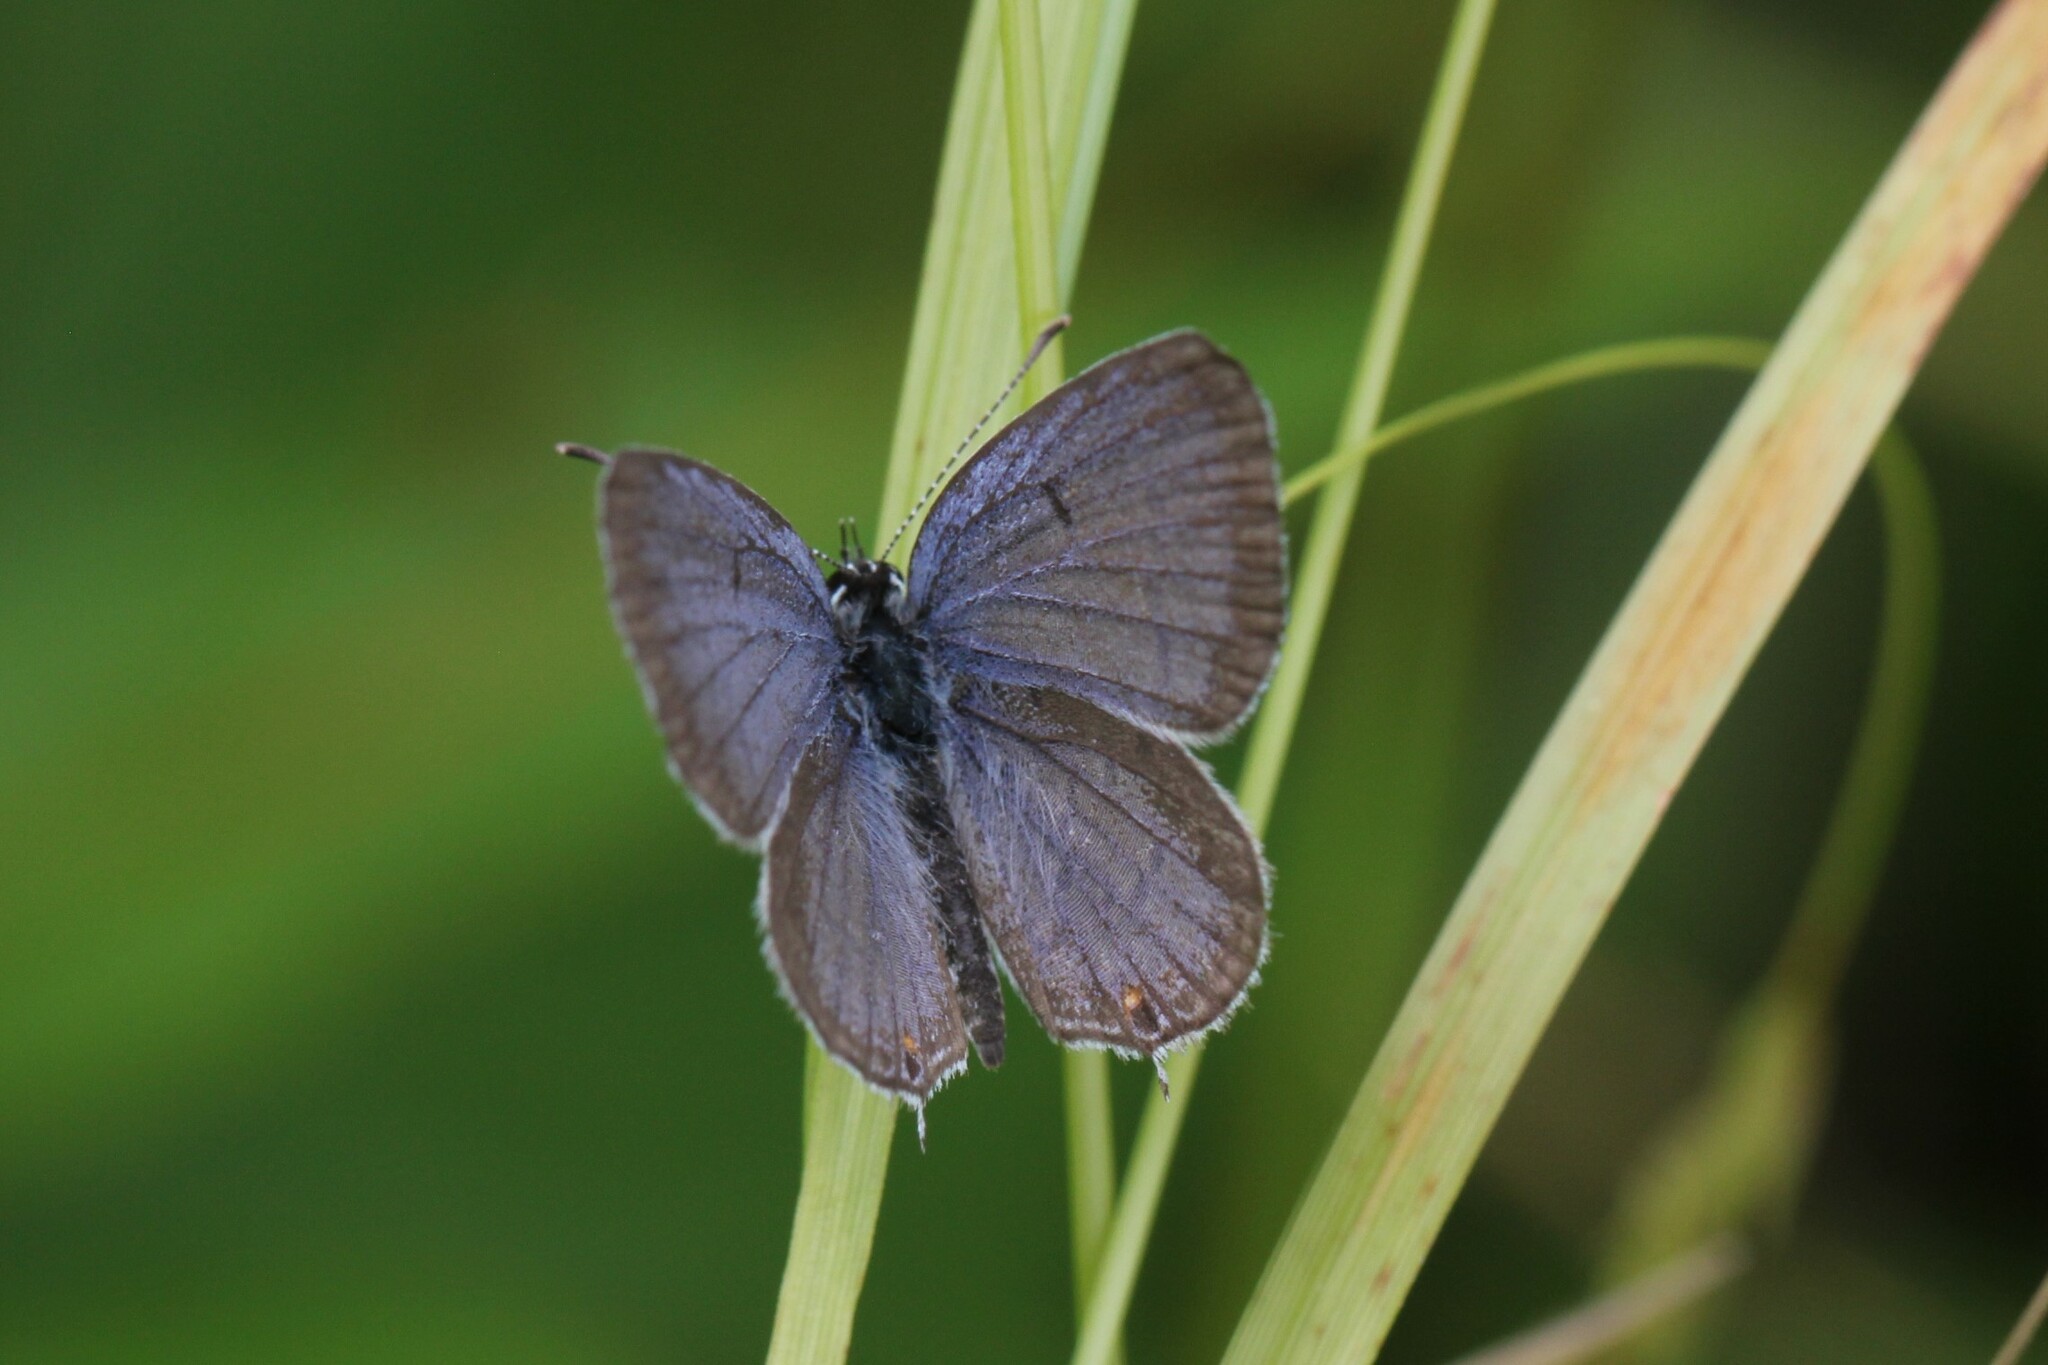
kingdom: Animalia
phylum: Arthropoda
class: Insecta
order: Lepidoptera
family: Lycaenidae
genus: Elkalyce
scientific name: Elkalyce comyntas
